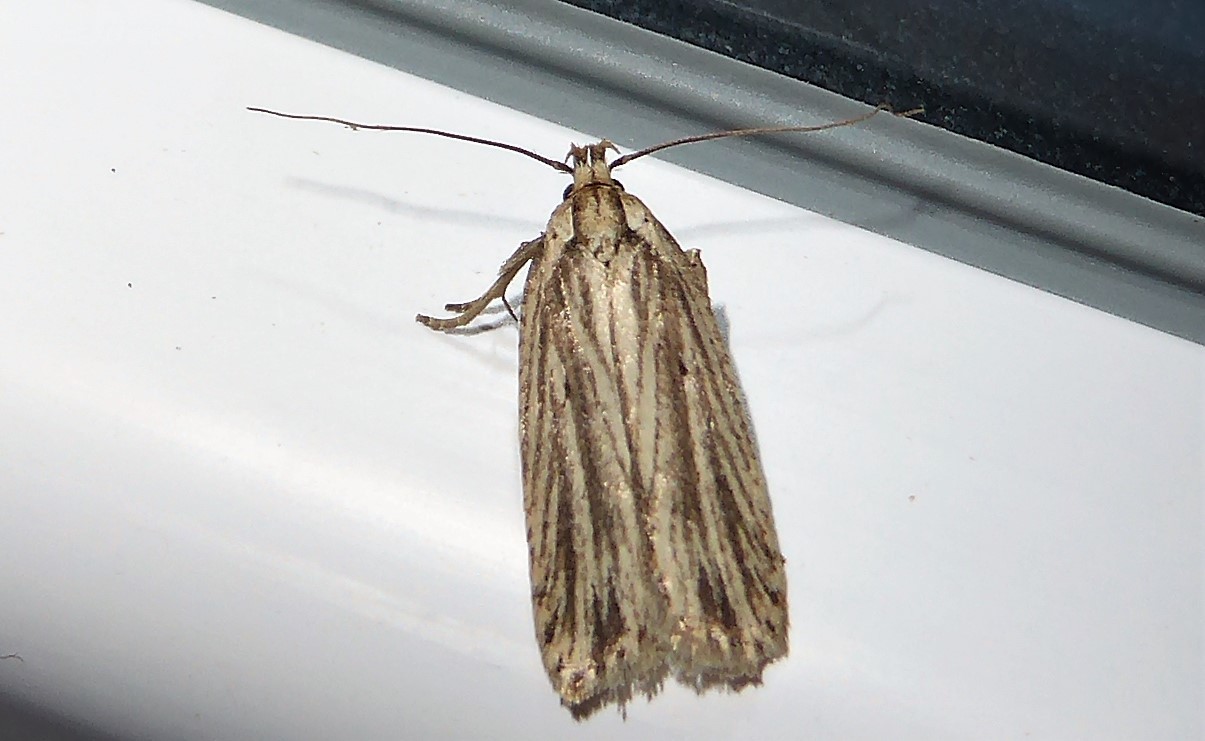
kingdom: Animalia
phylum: Arthropoda
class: Insecta
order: Lepidoptera
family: Depressariidae
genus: Agonopterix
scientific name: Agonopterix
